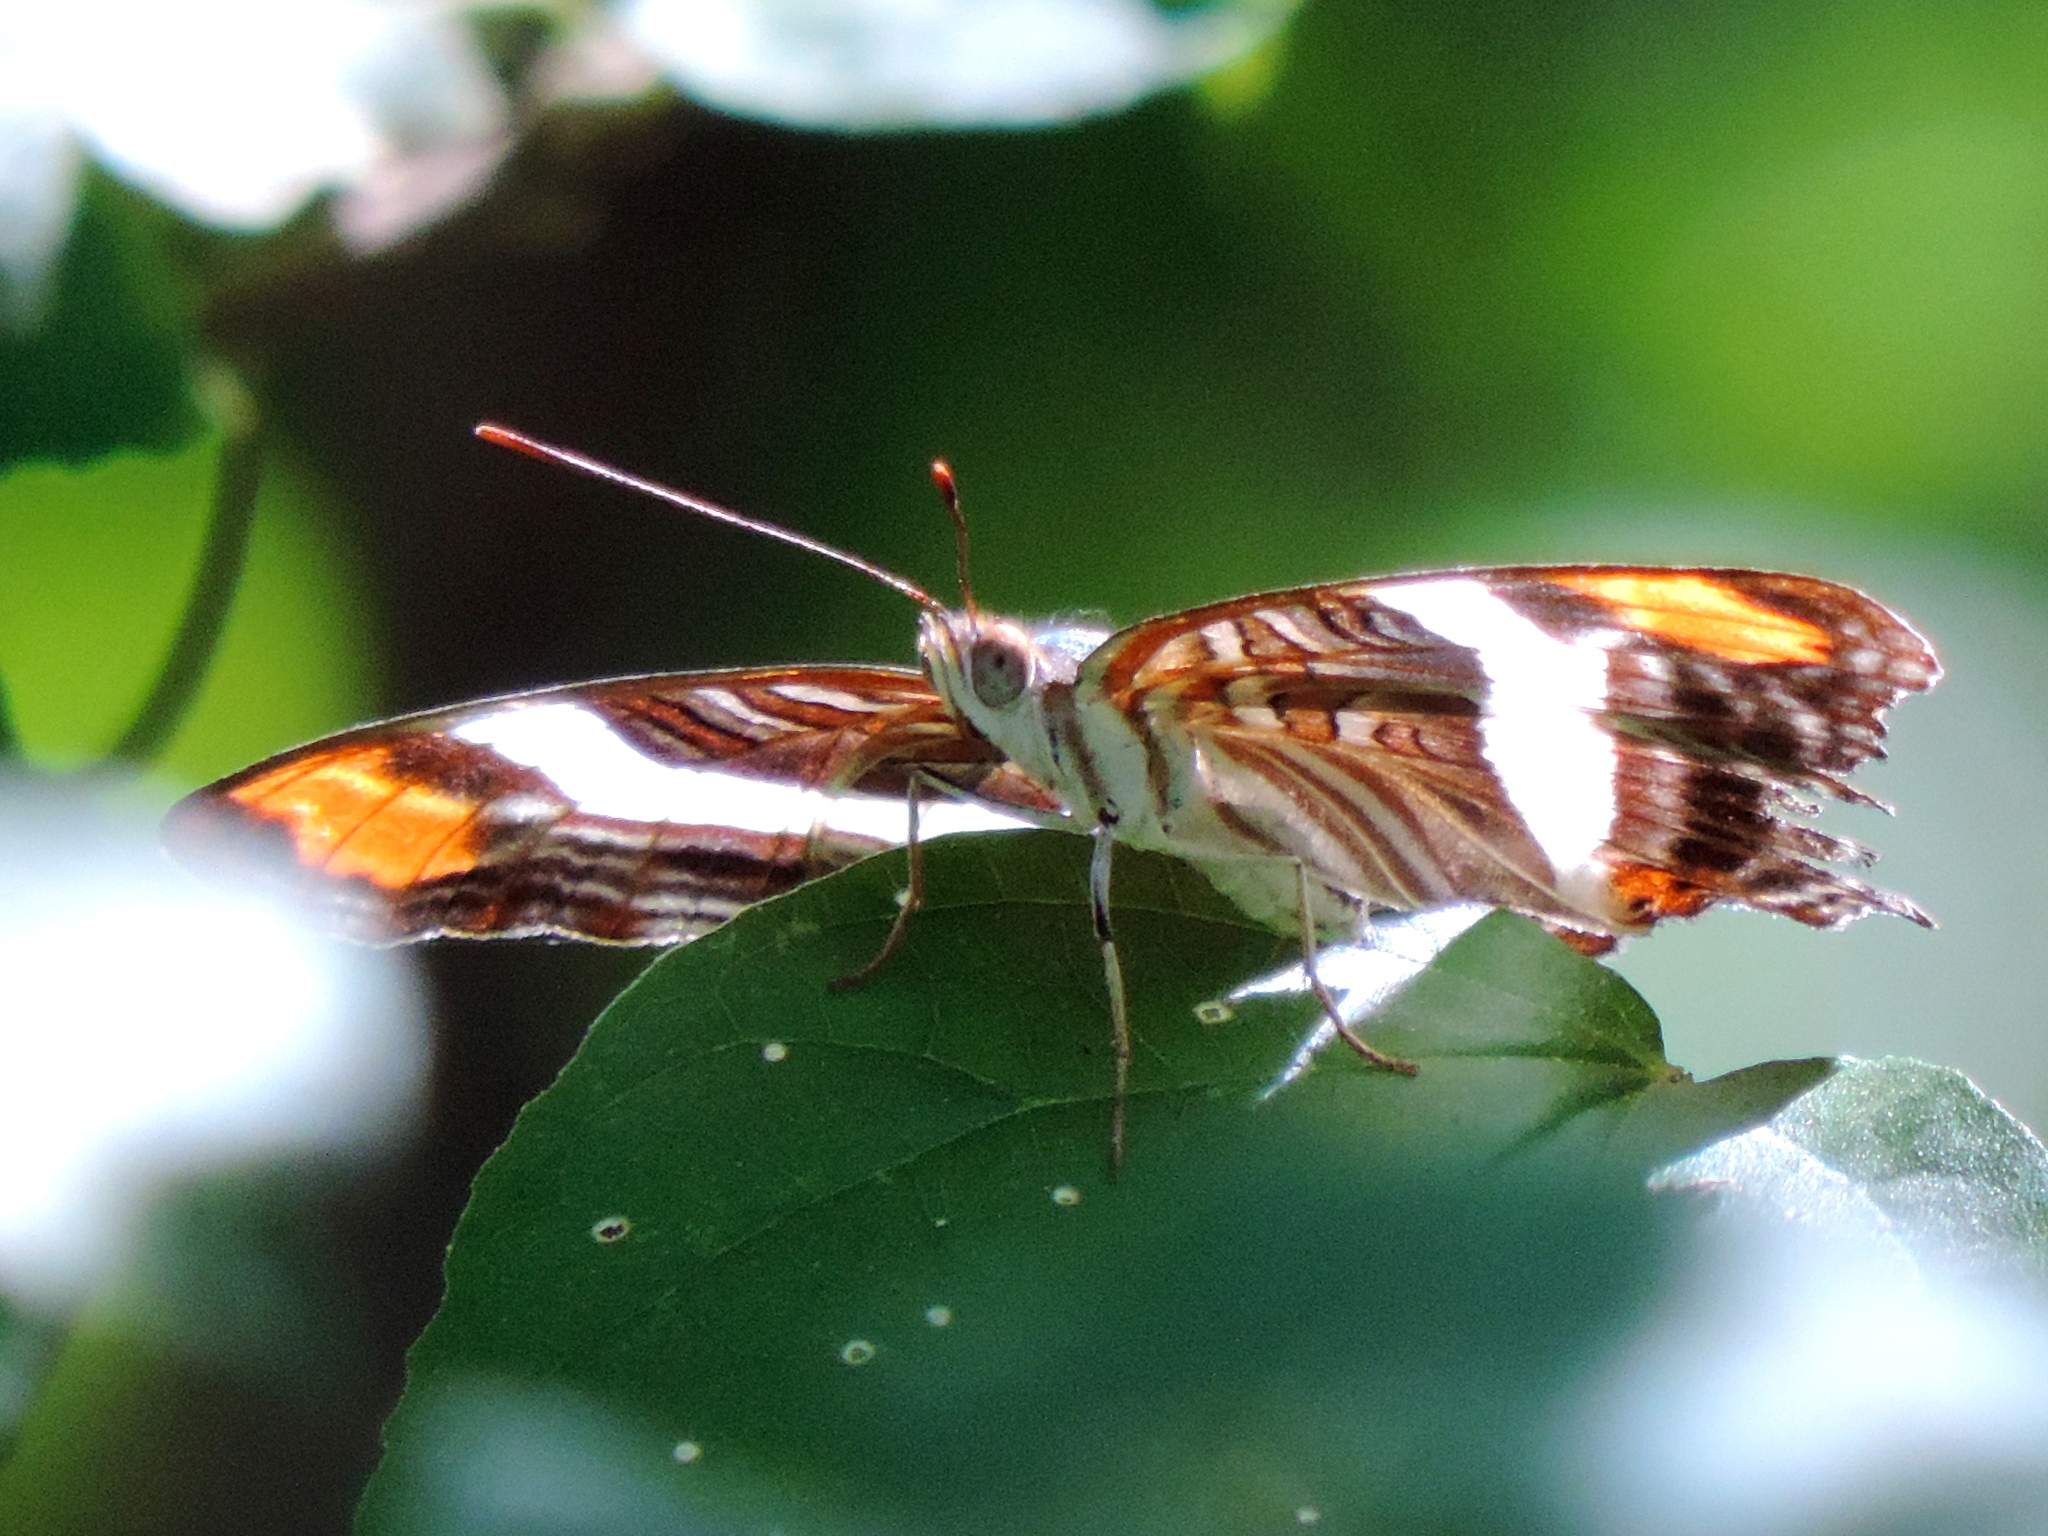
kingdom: Animalia
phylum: Arthropoda
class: Insecta
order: Lepidoptera
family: Nymphalidae
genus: Limenitis
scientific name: Limenitis fessonia
